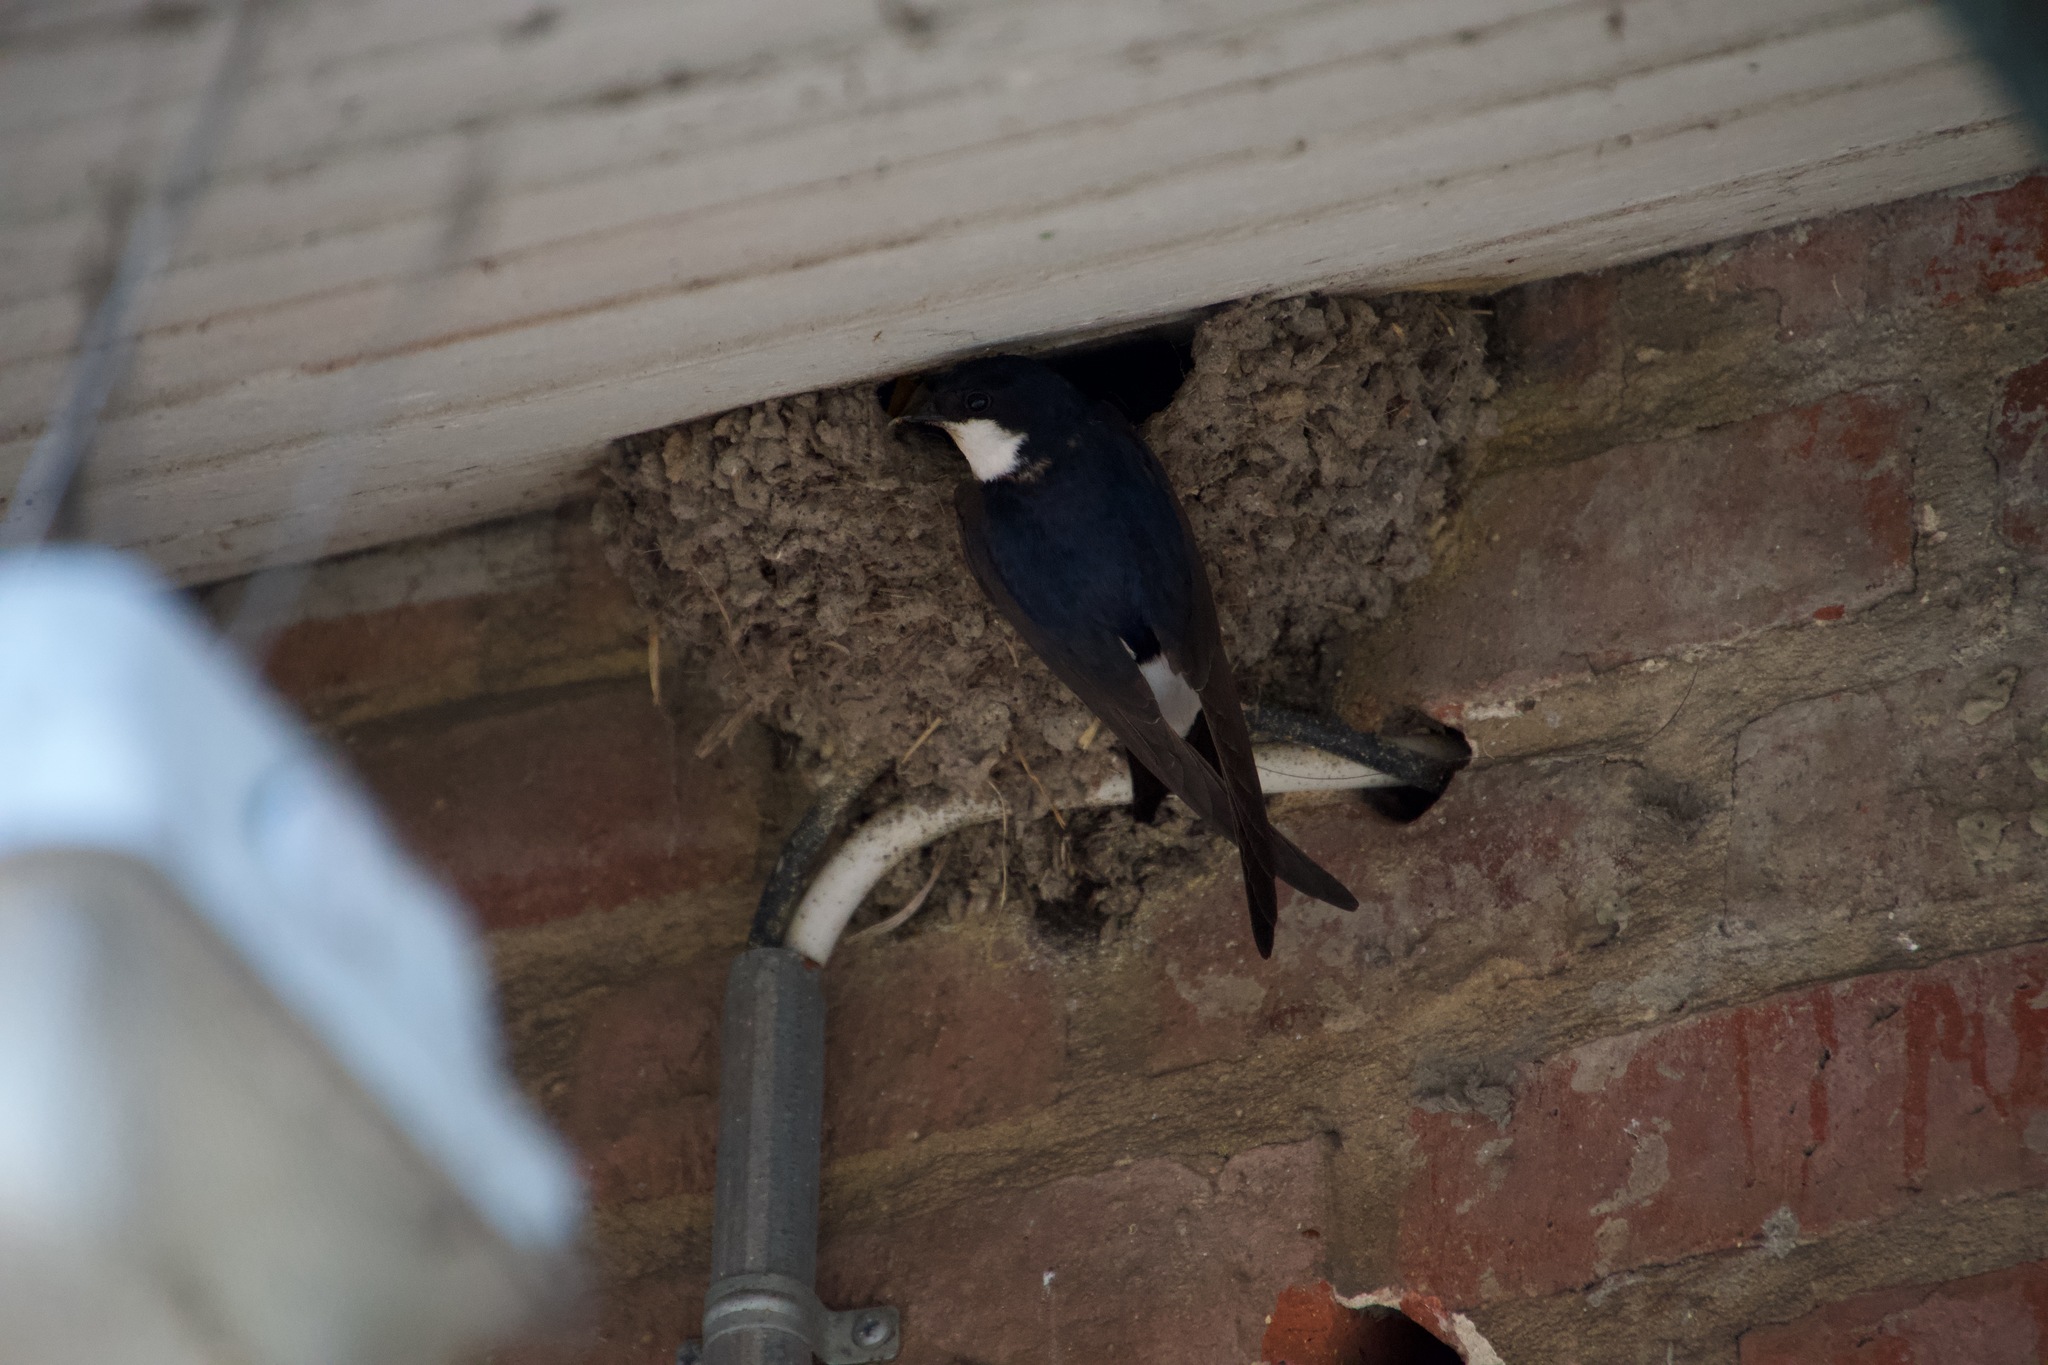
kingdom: Animalia
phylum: Chordata
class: Aves
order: Passeriformes
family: Hirundinidae
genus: Delichon
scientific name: Delichon urbicum
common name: Common house martin
